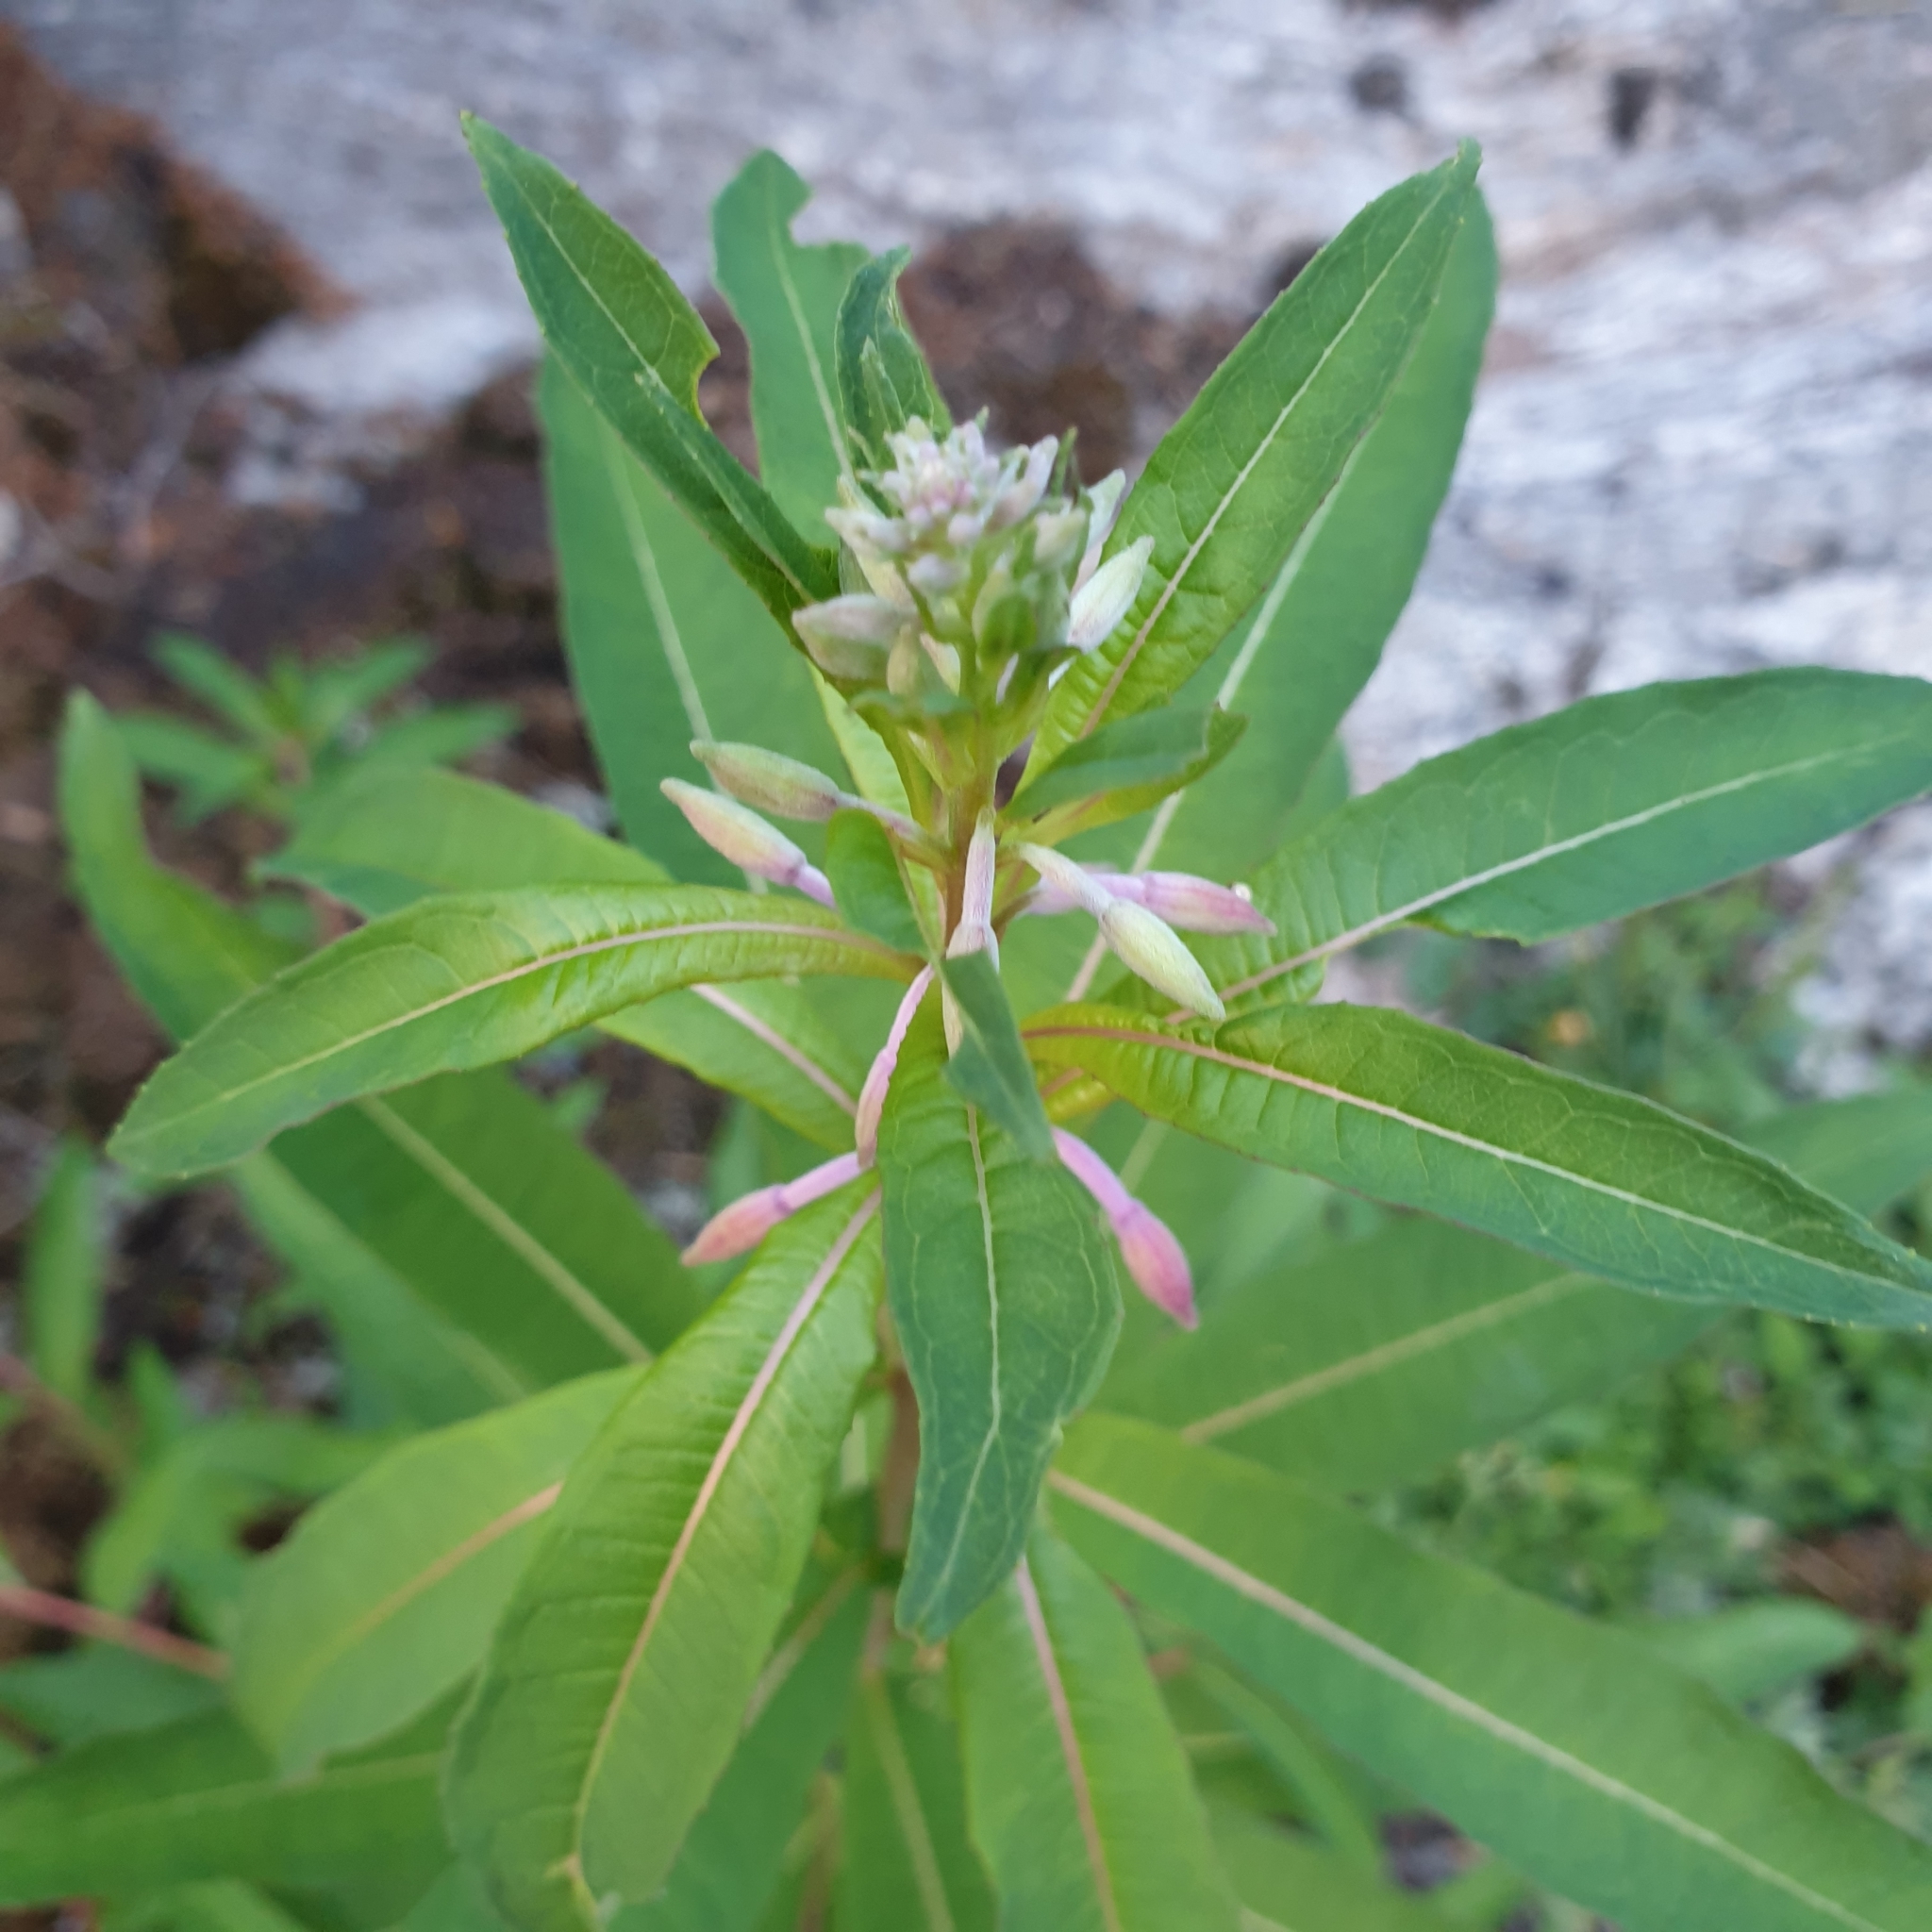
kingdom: Plantae
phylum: Tracheophyta
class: Magnoliopsida
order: Myrtales
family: Onagraceae
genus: Chamaenerion
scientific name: Chamaenerion angustifolium
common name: Fireweed
